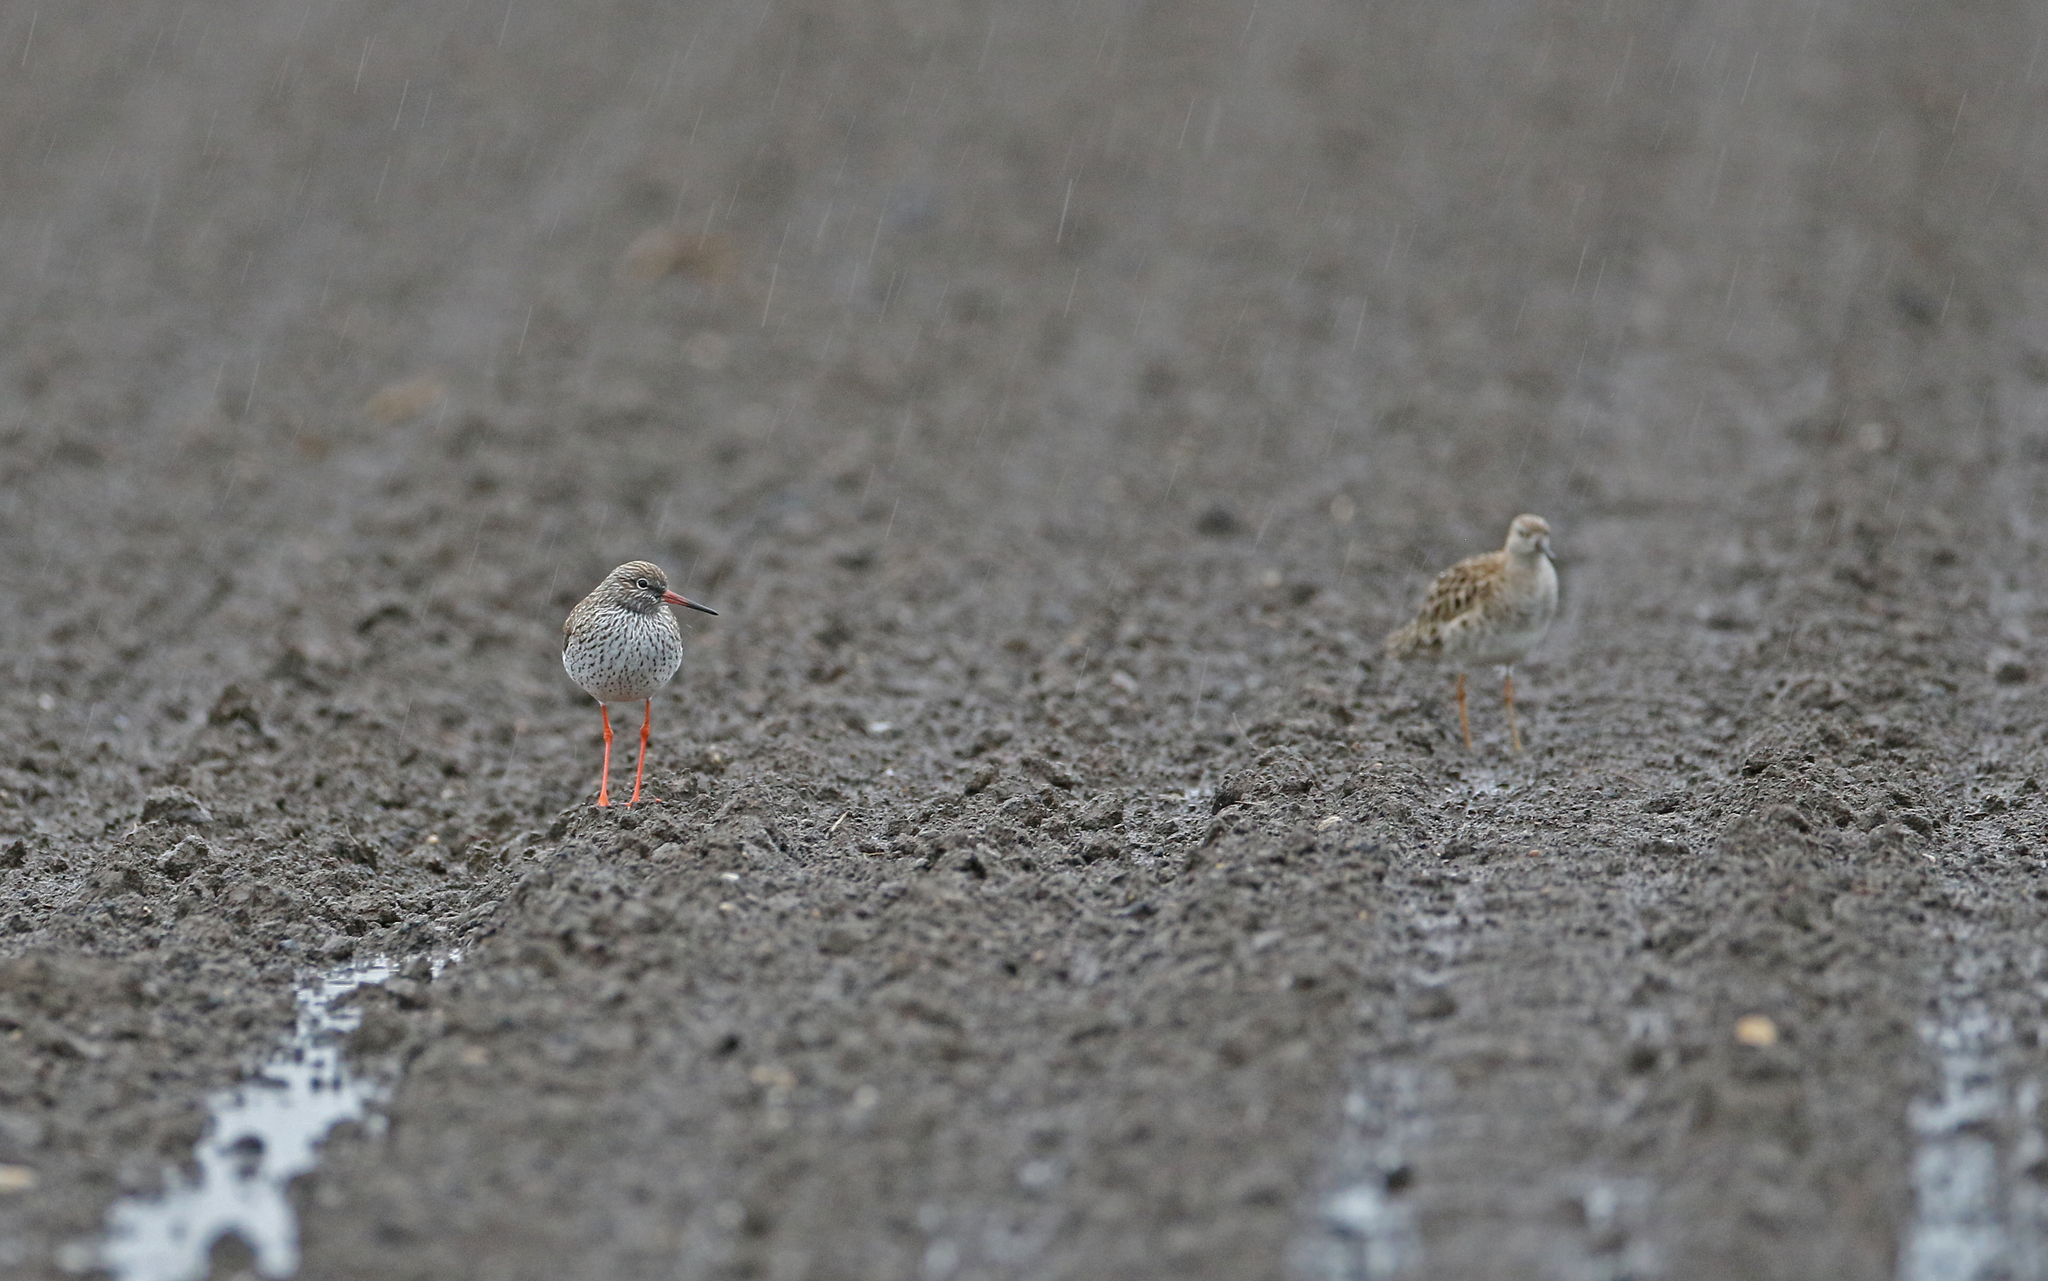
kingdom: Animalia
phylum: Chordata
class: Aves
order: Charadriiformes
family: Scolopacidae
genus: Tringa
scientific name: Tringa totanus
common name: Common redshank
